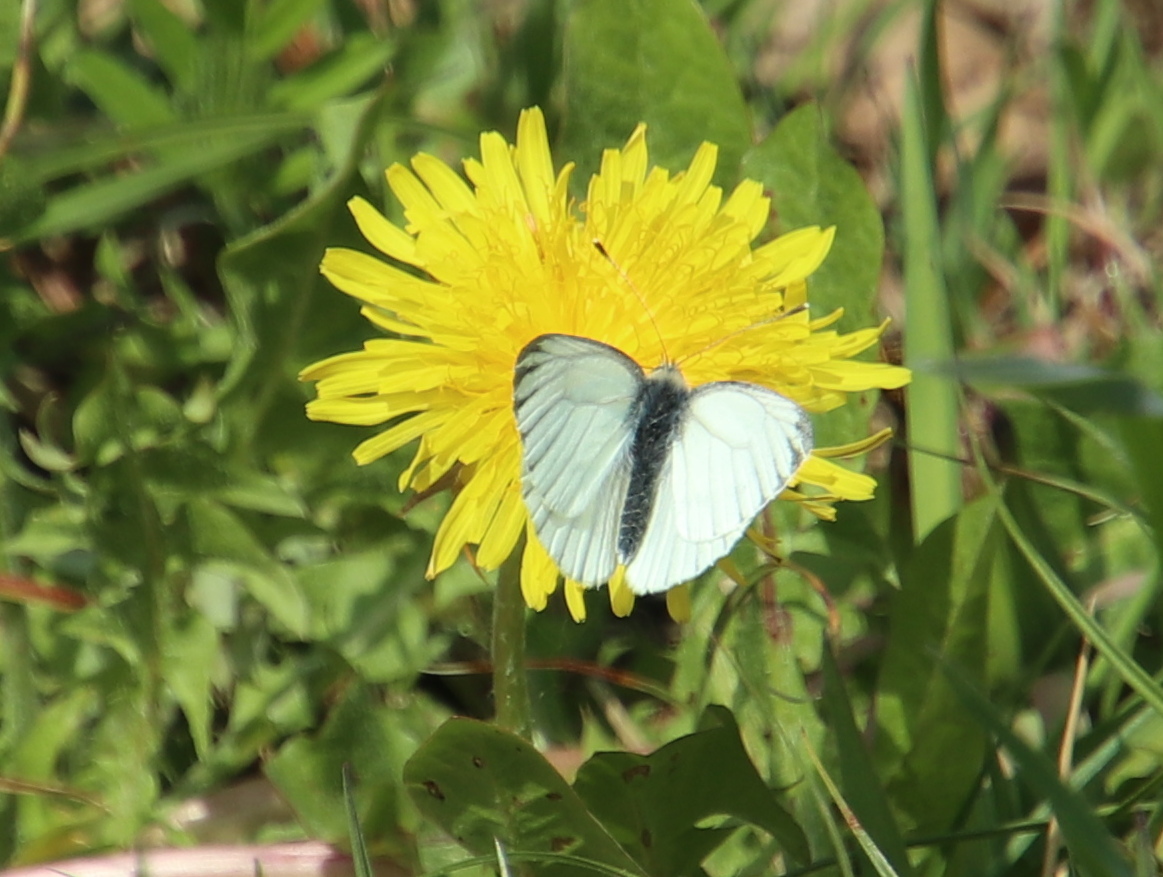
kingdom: Animalia
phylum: Arthropoda
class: Insecta
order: Lepidoptera
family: Pieridae
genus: Pieris
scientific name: Pieris napi
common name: Green-veined white
